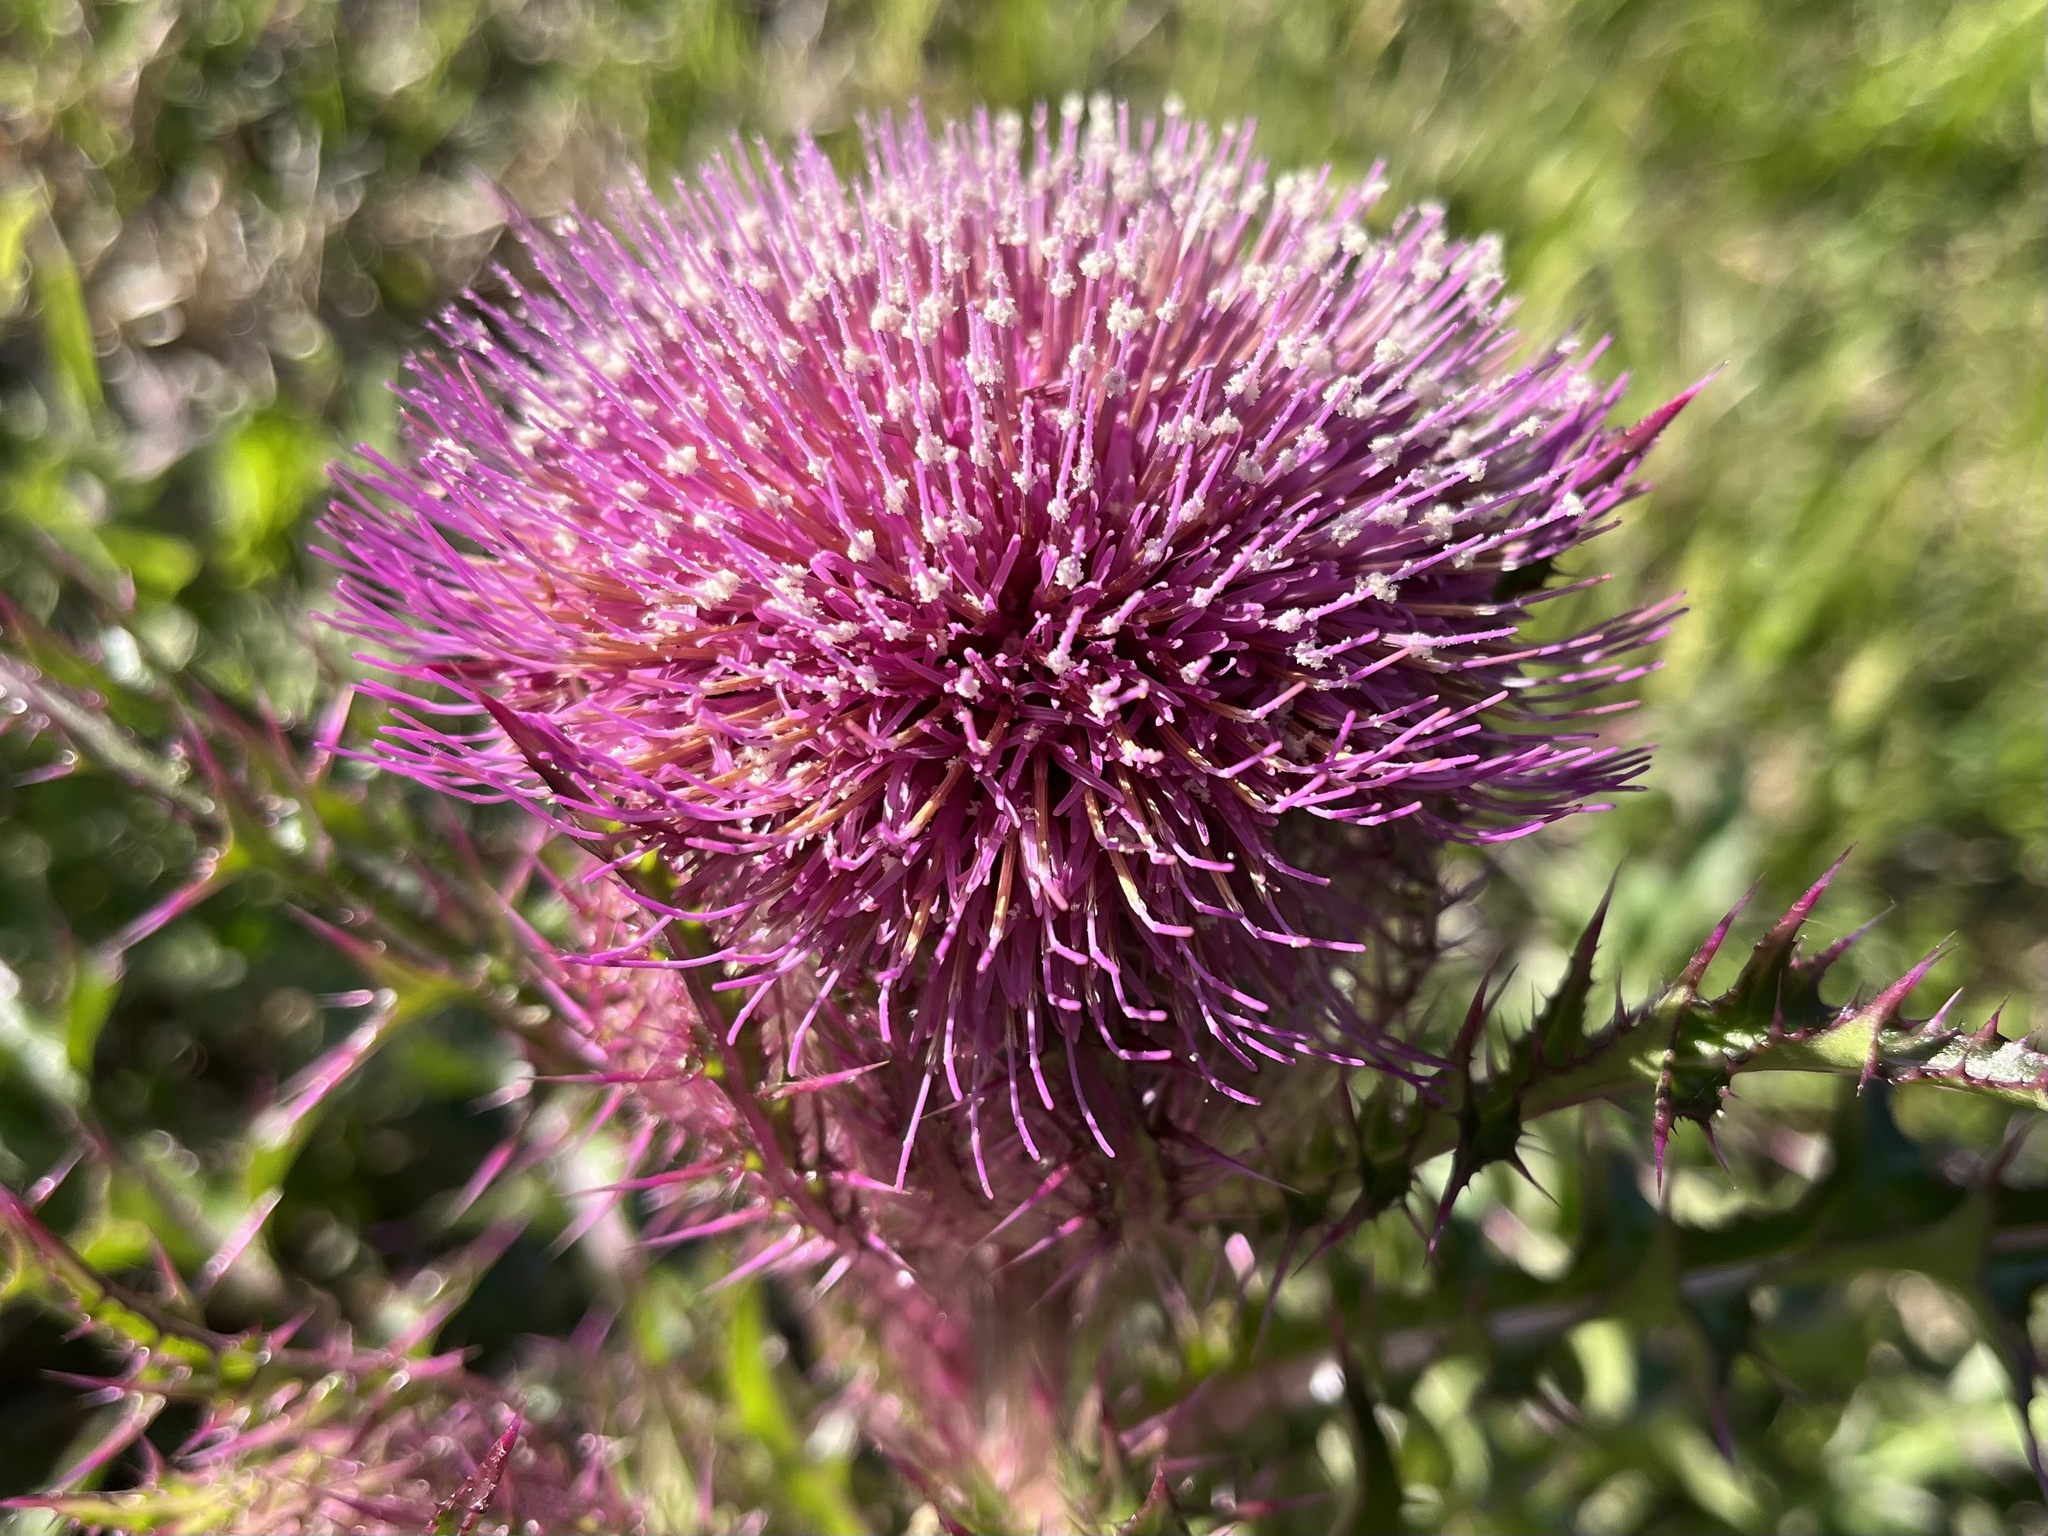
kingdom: Plantae
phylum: Tracheophyta
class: Magnoliopsida
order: Asterales
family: Asteraceae
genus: Cirsium
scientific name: Cirsium horridulum
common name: Bristly thistle
